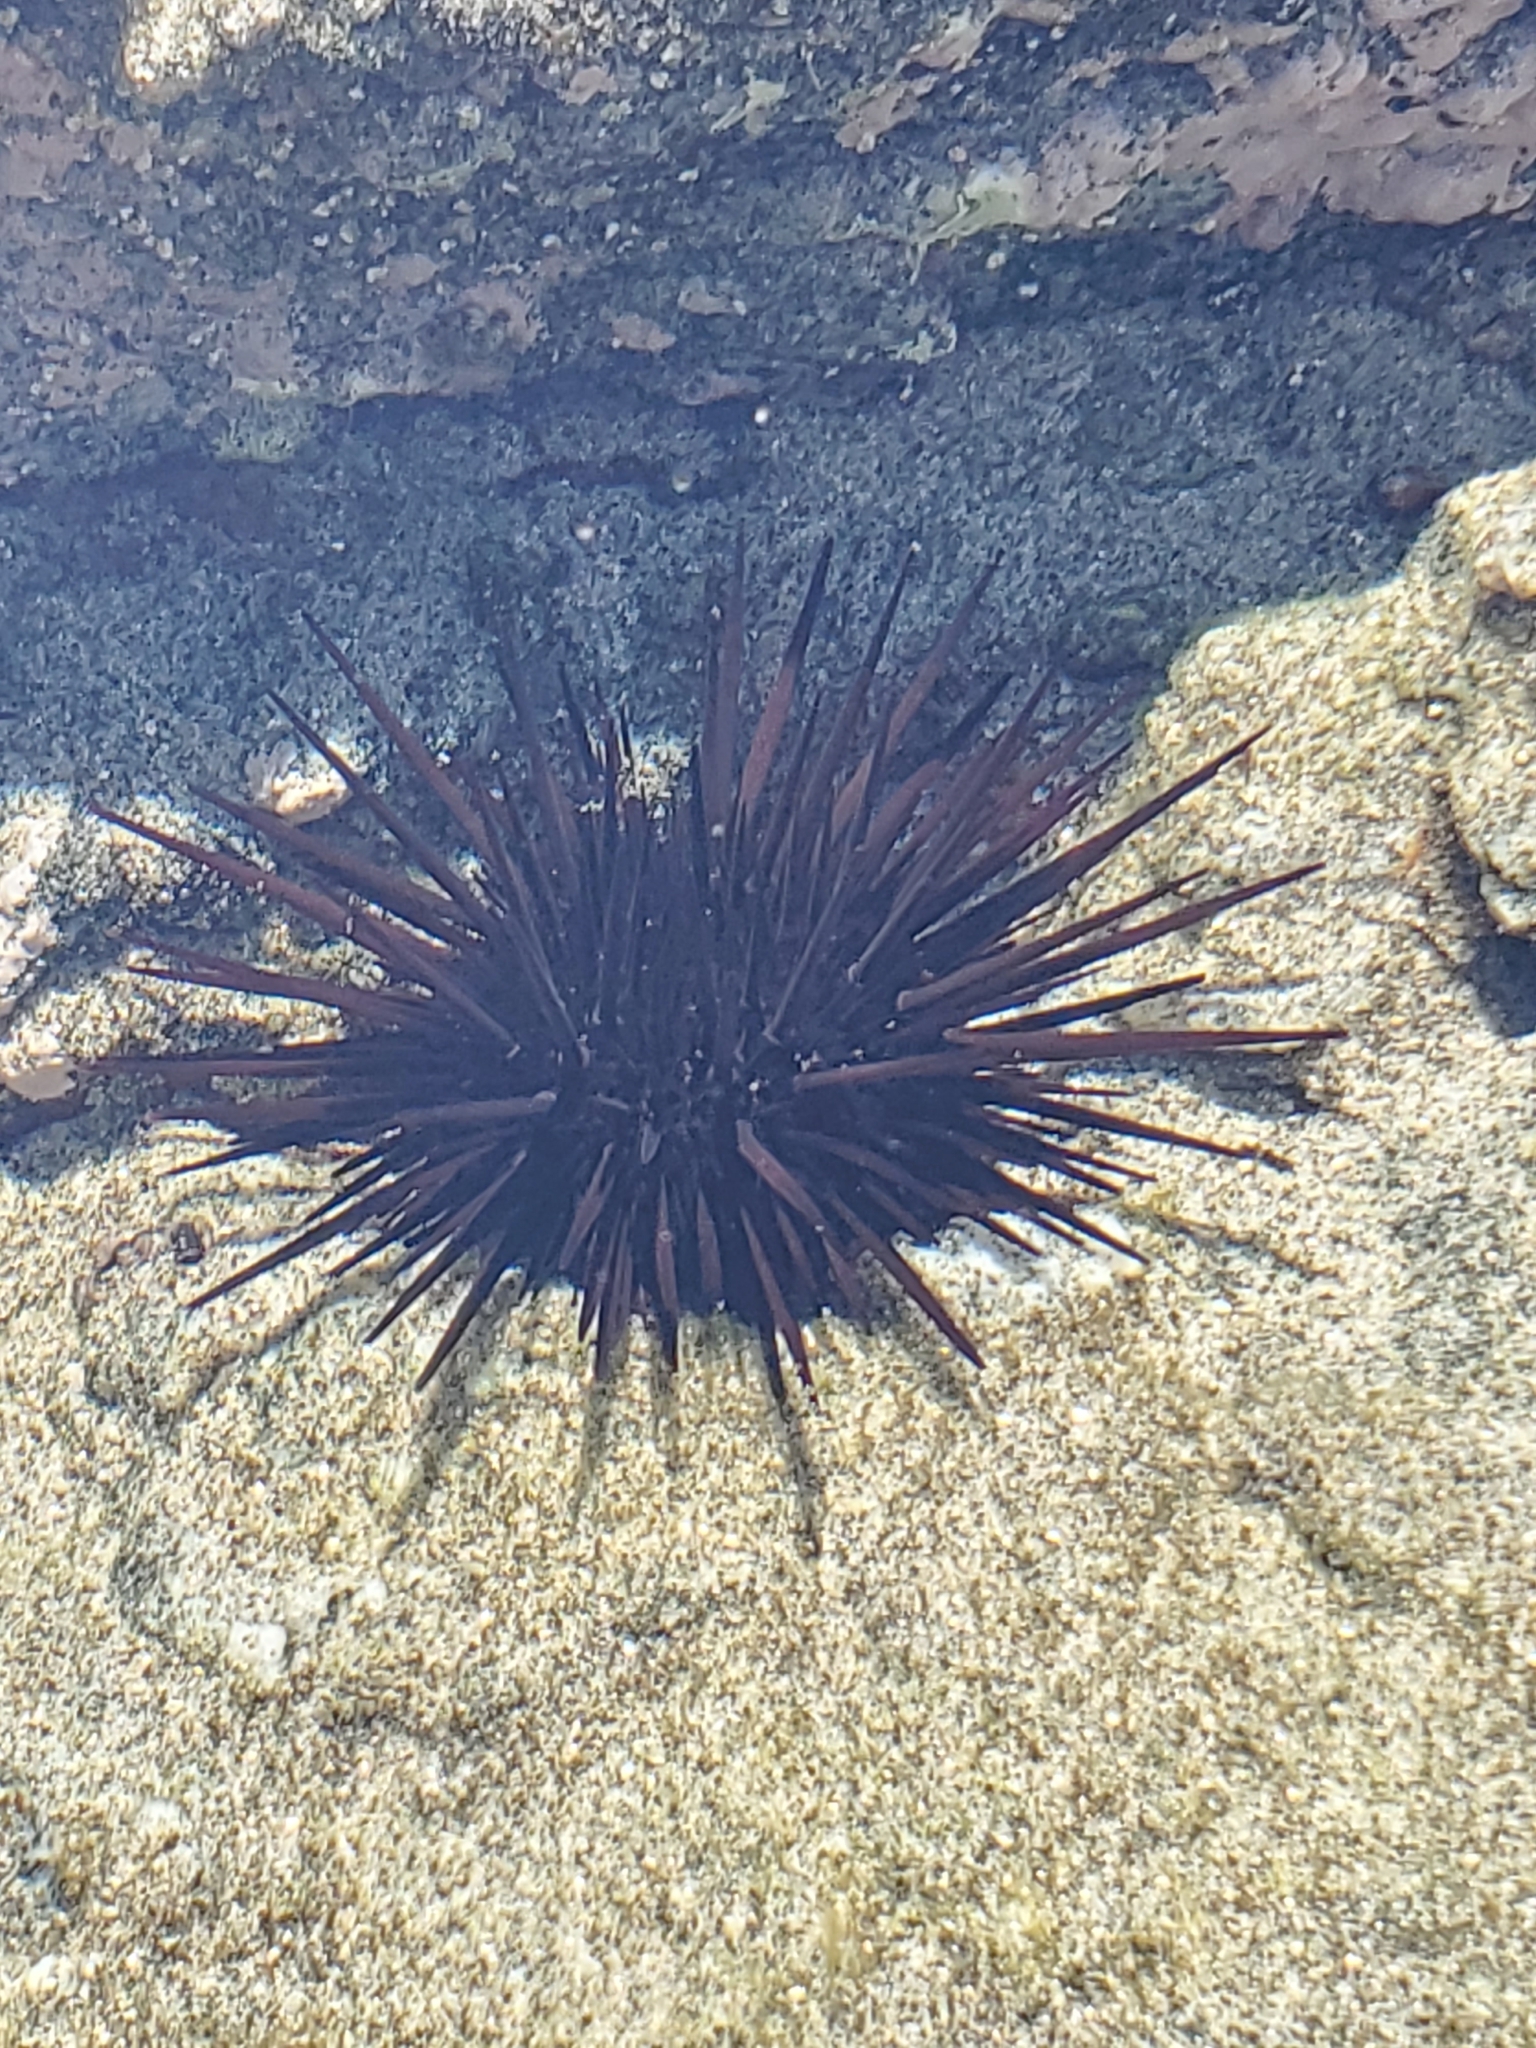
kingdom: Animalia
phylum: Echinodermata
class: Echinoidea
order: Camarodonta
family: Echinometridae
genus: Echinometra
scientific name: Echinometra vanbrunti
